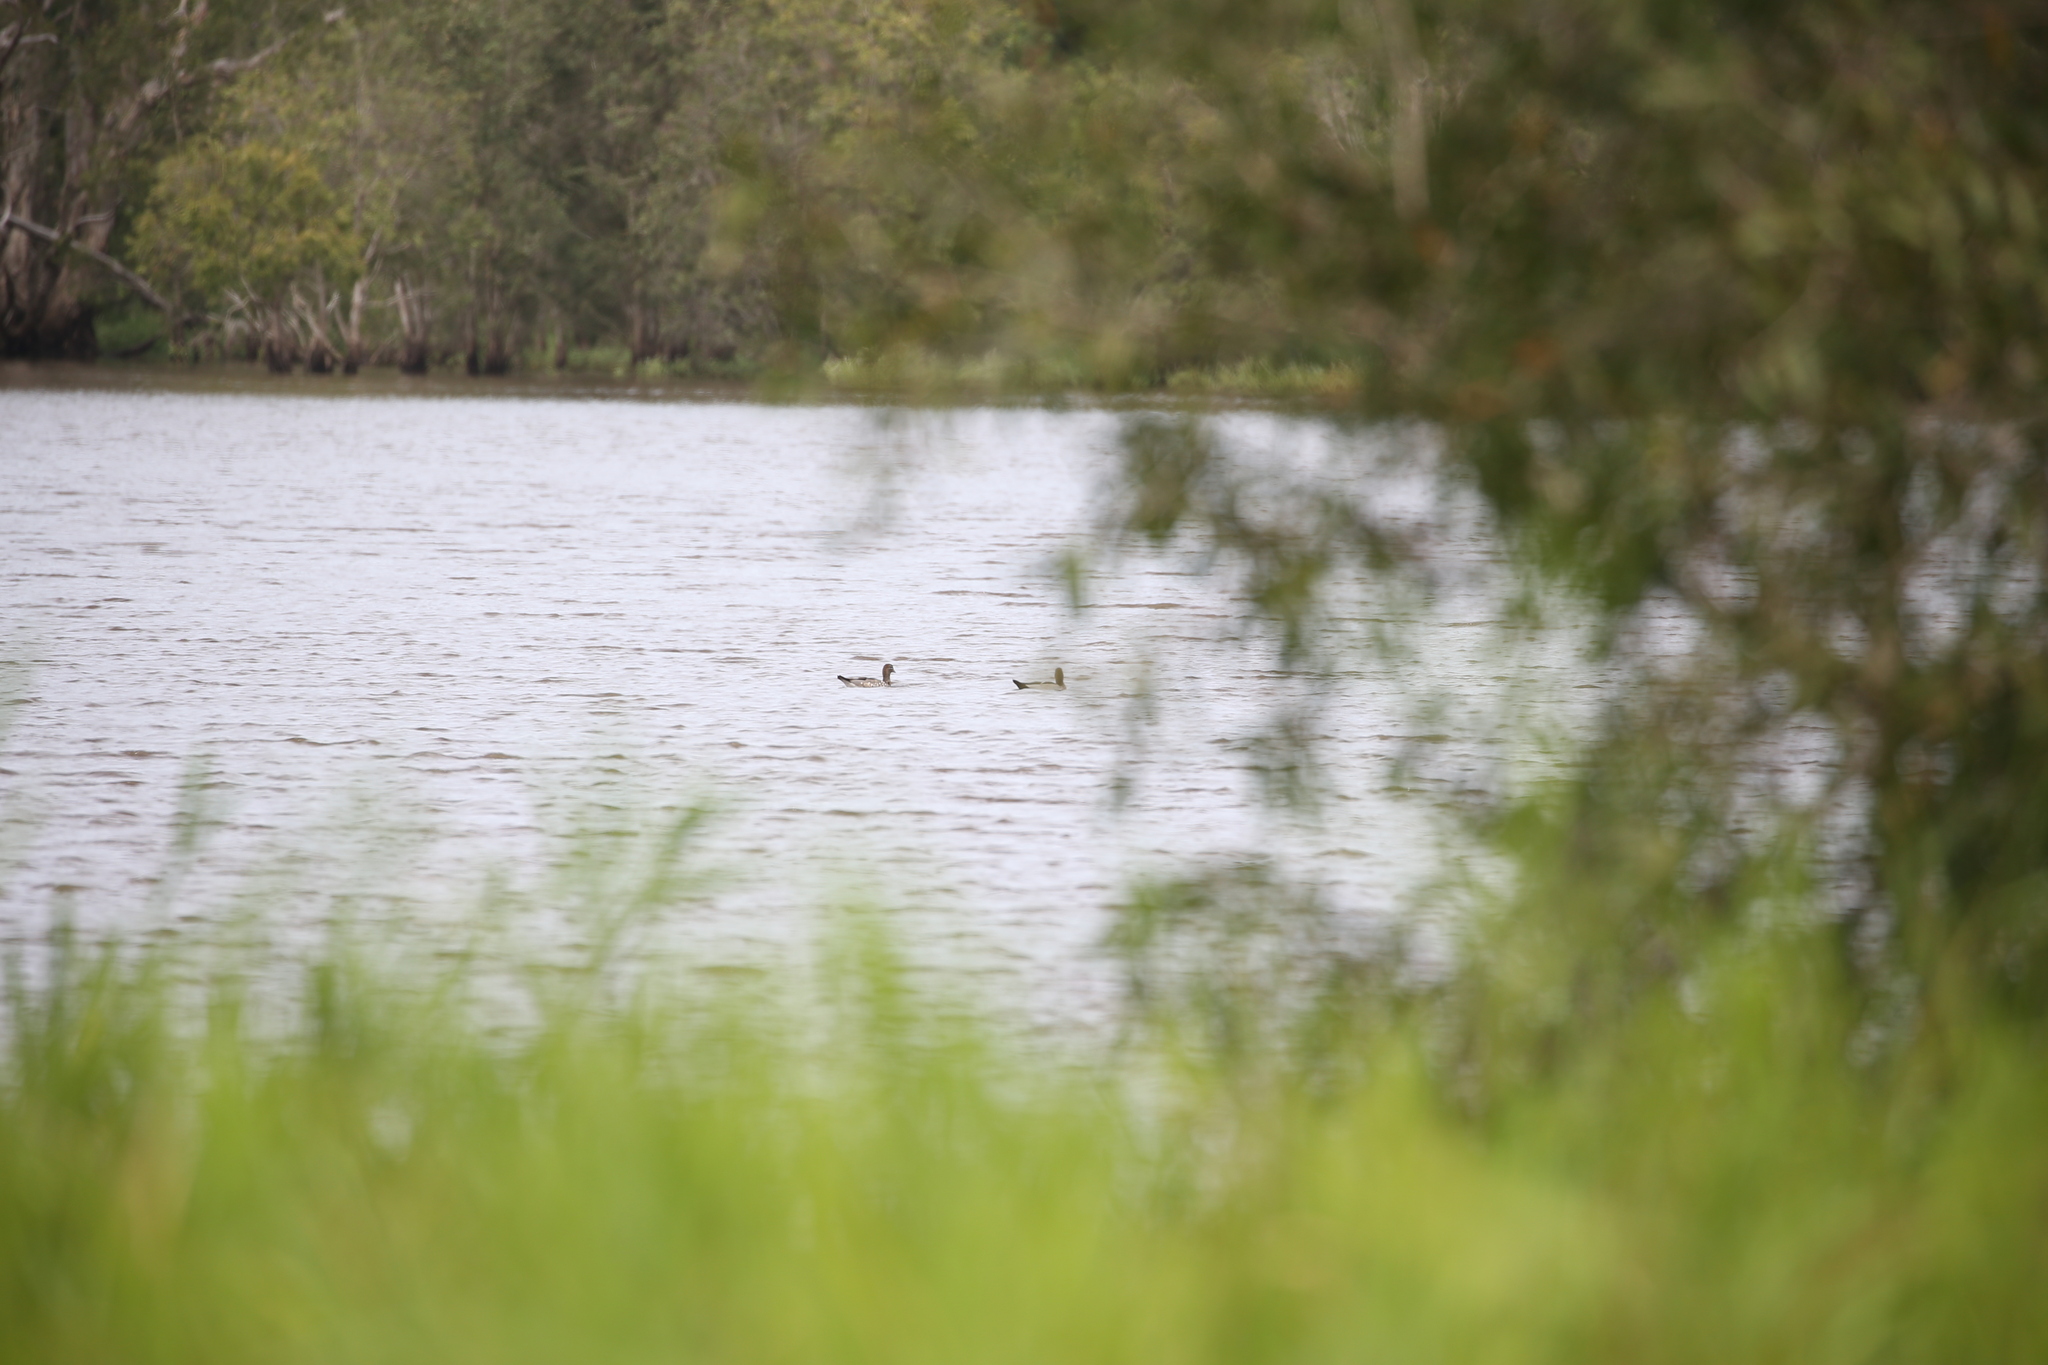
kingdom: Animalia
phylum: Chordata
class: Aves
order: Anseriformes
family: Anatidae
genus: Chenonetta
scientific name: Chenonetta jubata
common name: Maned duck
